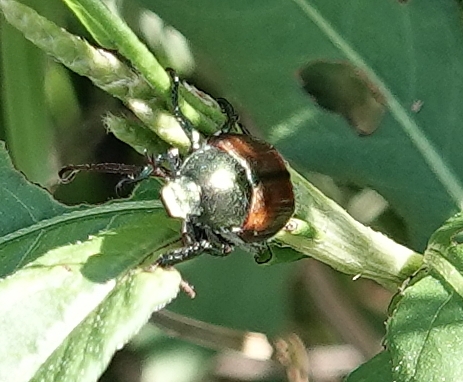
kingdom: Animalia
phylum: Arthropoda
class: Insecta
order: Coleoptera
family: Scarabaeidae
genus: Popillia
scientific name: Popillia japonica
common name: Japanese beetle
